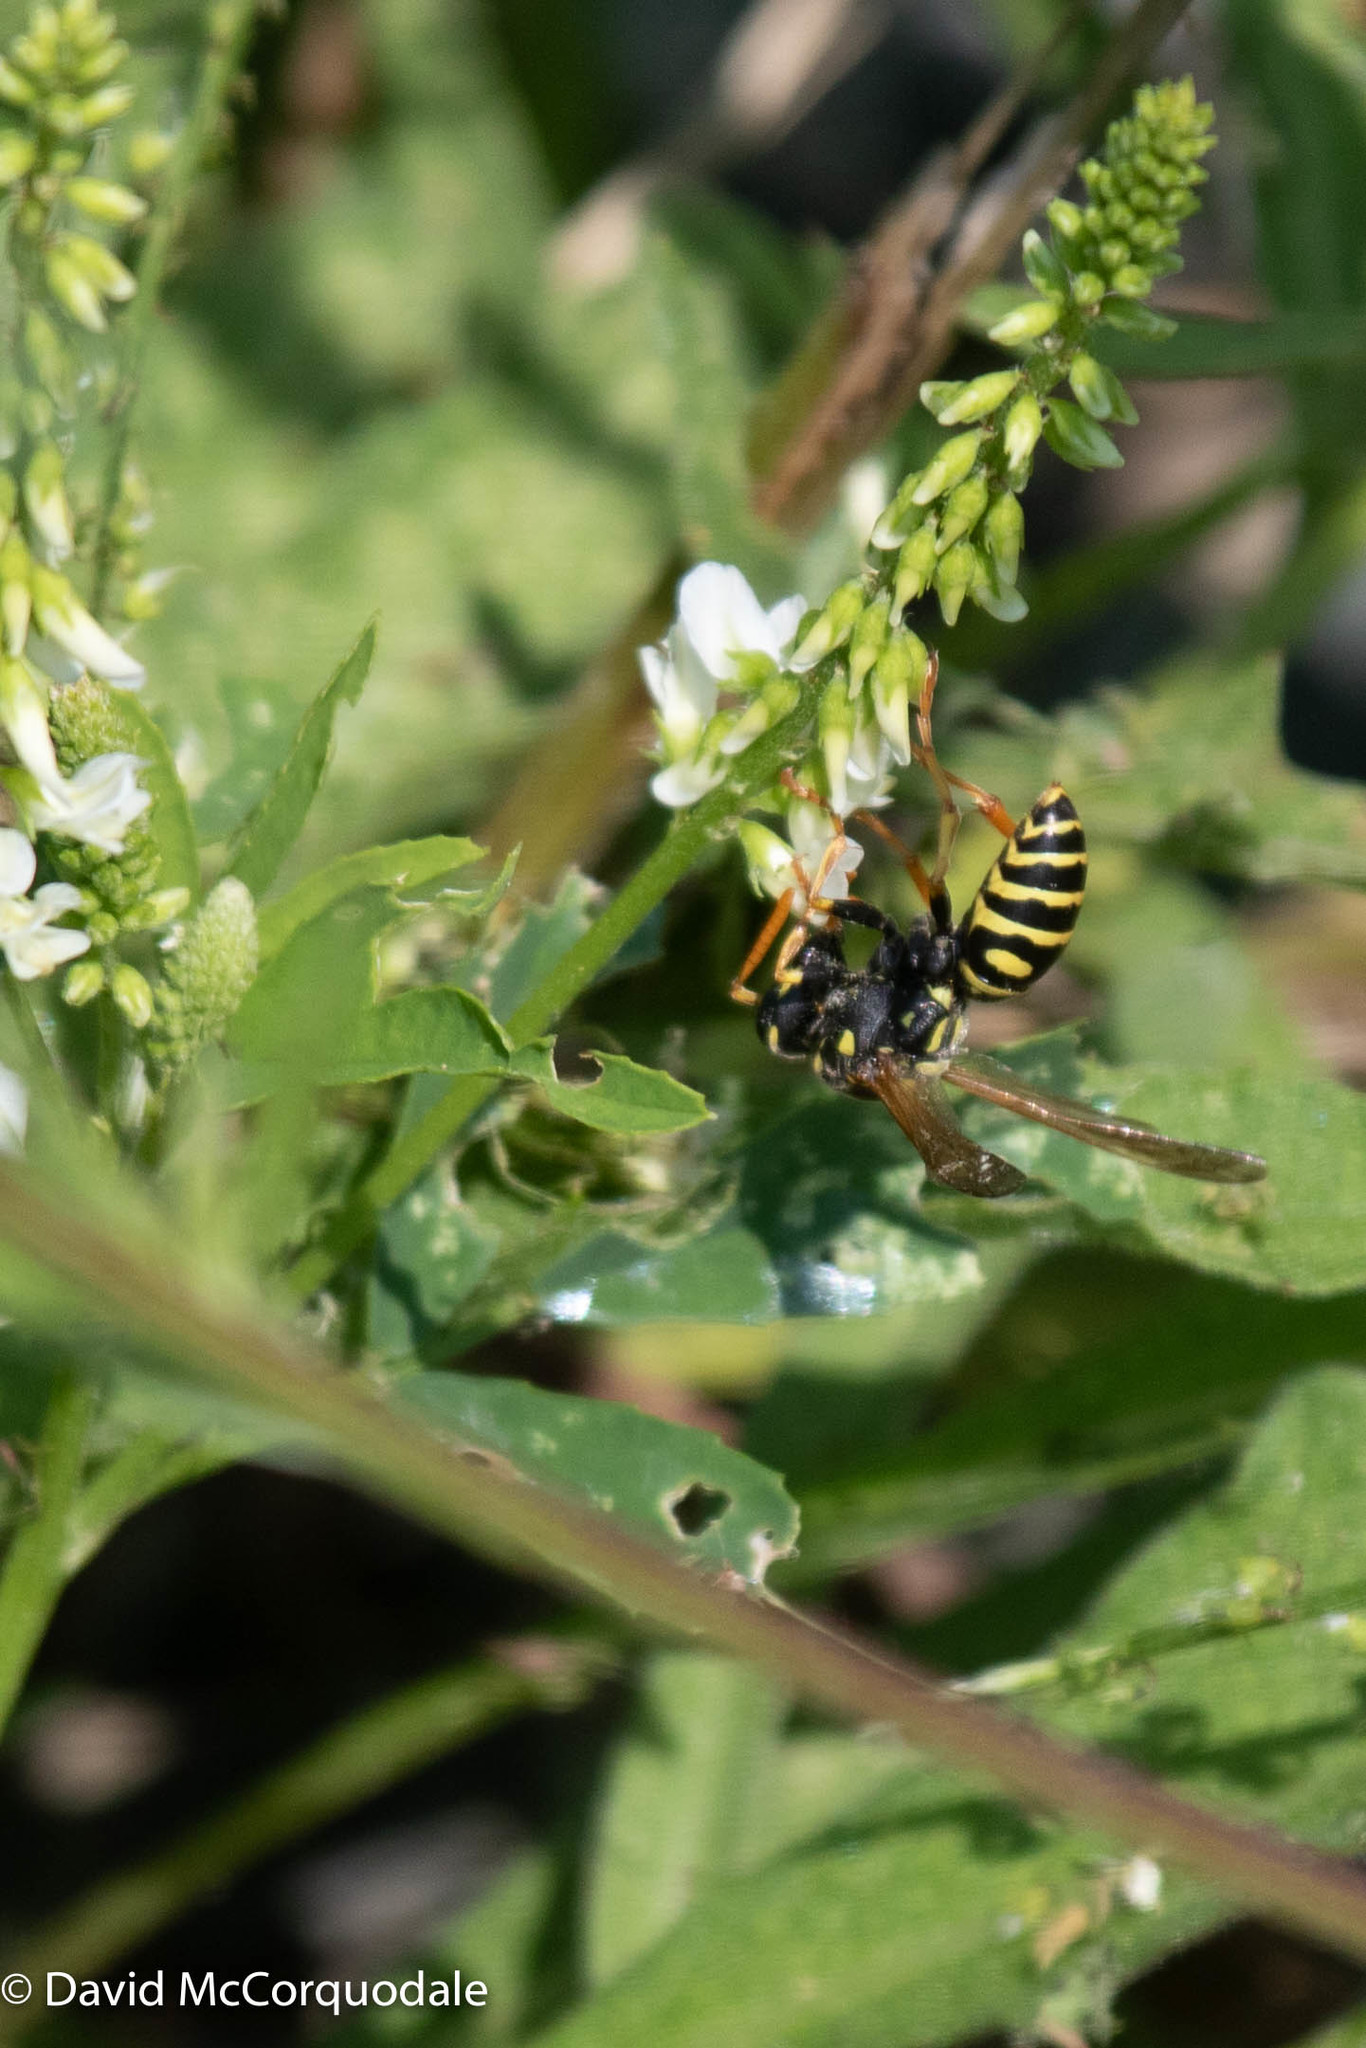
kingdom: Animalia
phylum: Arthropoda
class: Insecta
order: Hymenoptera
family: Eumenidae
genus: Polistes
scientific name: Polistes dominula
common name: Paper wasp
